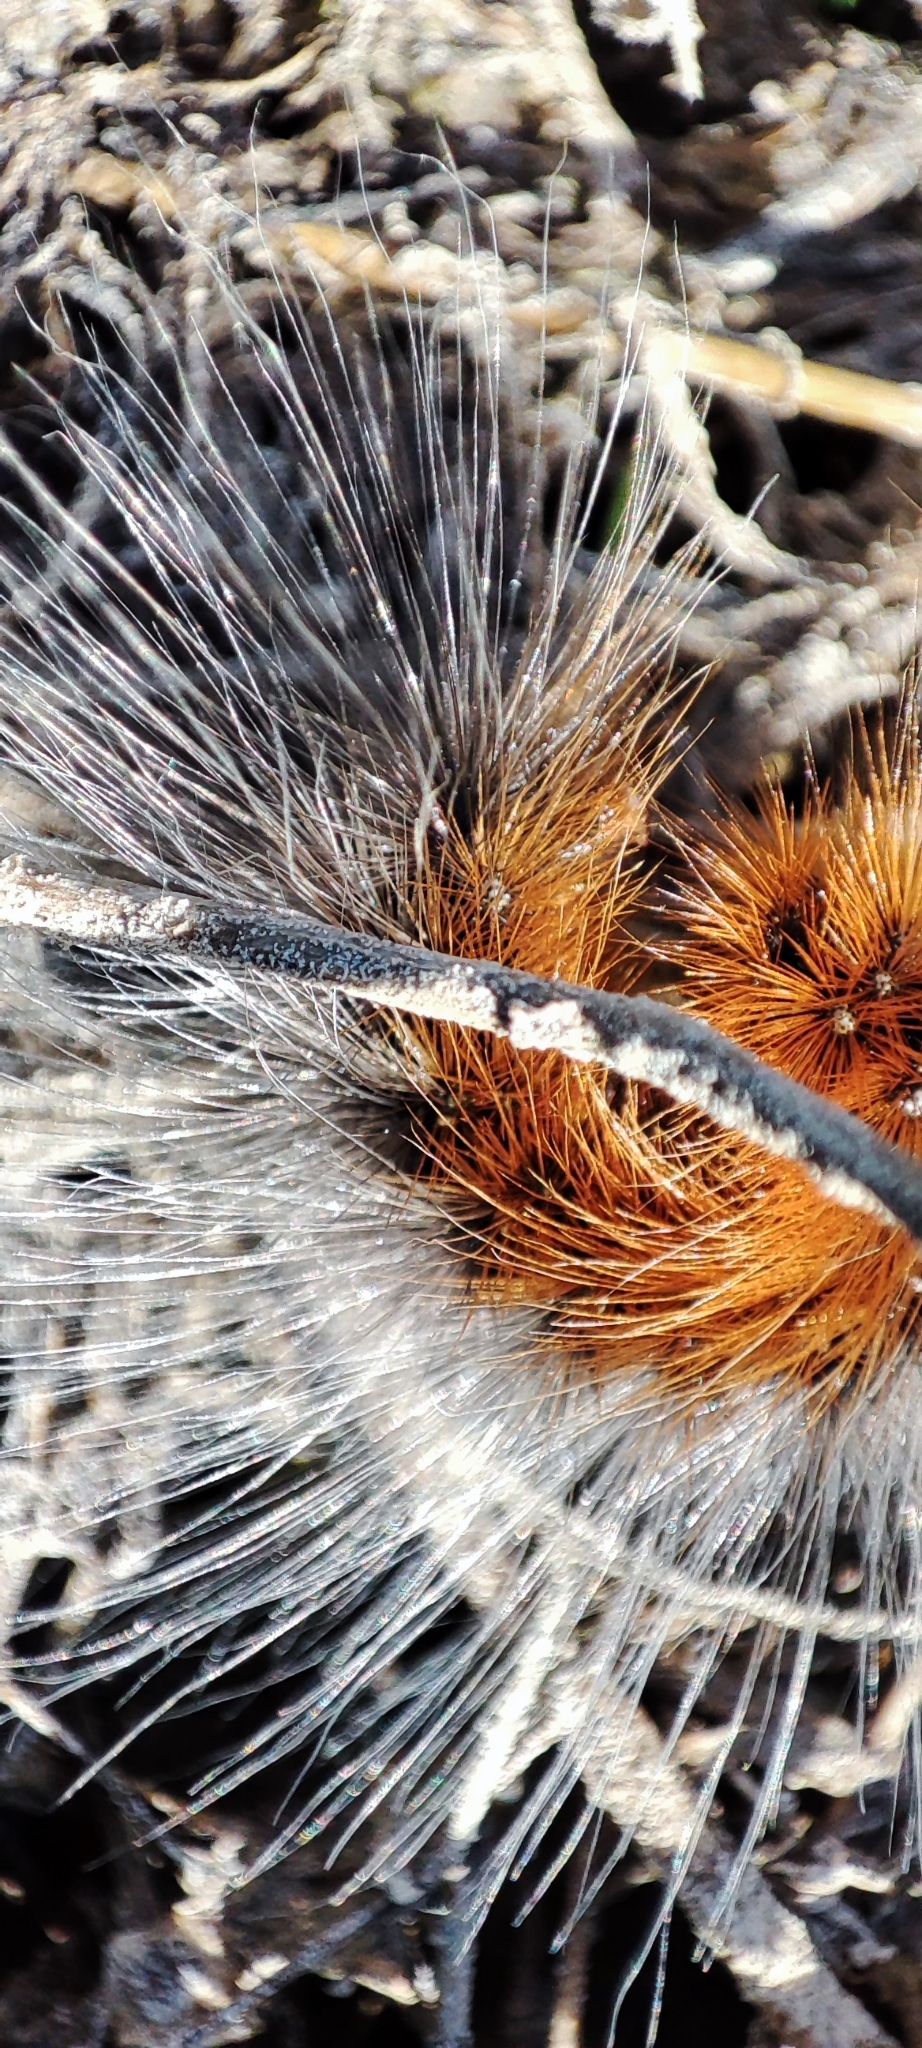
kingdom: Animalia
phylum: Arthropoda
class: Insecta
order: Lepidoptera
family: Erebidae
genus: Arctia
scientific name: Arctia caja
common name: Garden tiger
